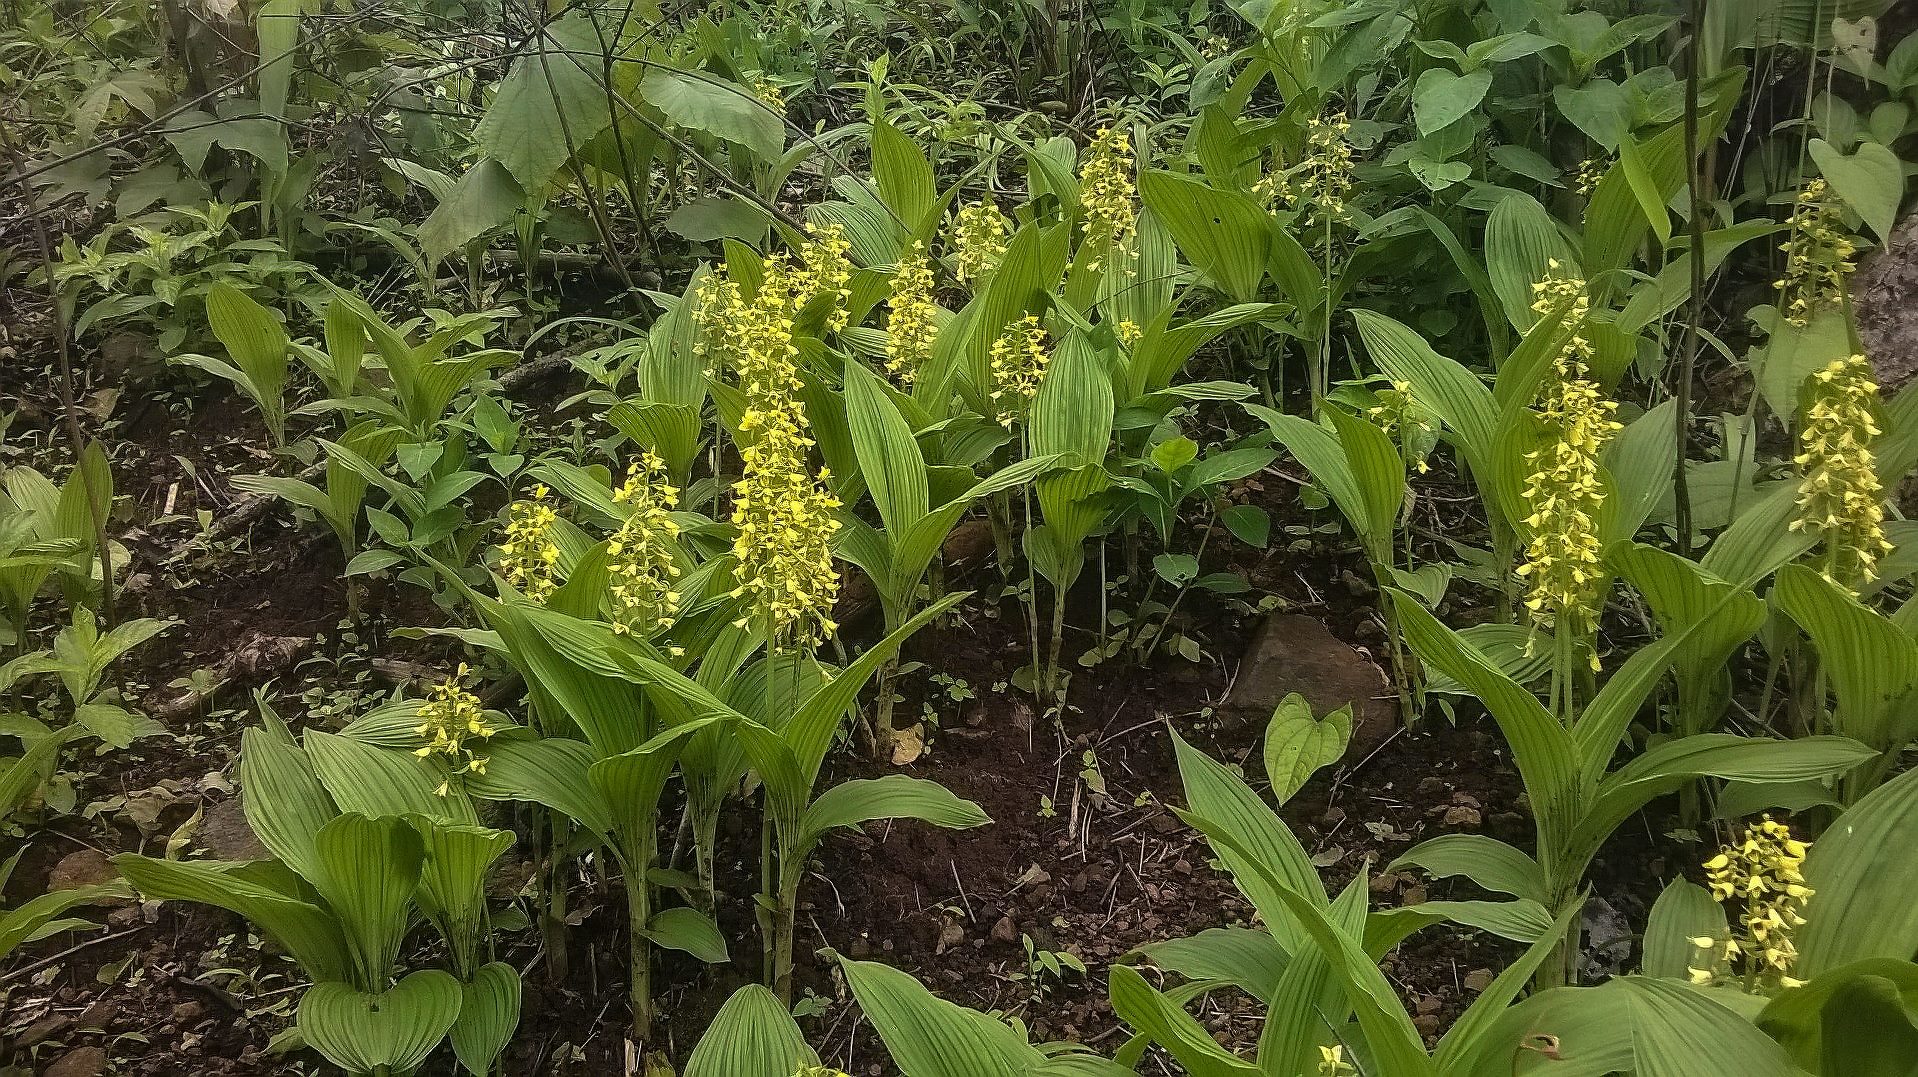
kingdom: Plantae
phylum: Tracheophyta
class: Liliopsida
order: Asparagales
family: Orchidaceae
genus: Eulophia
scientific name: Eulophia ochreata
